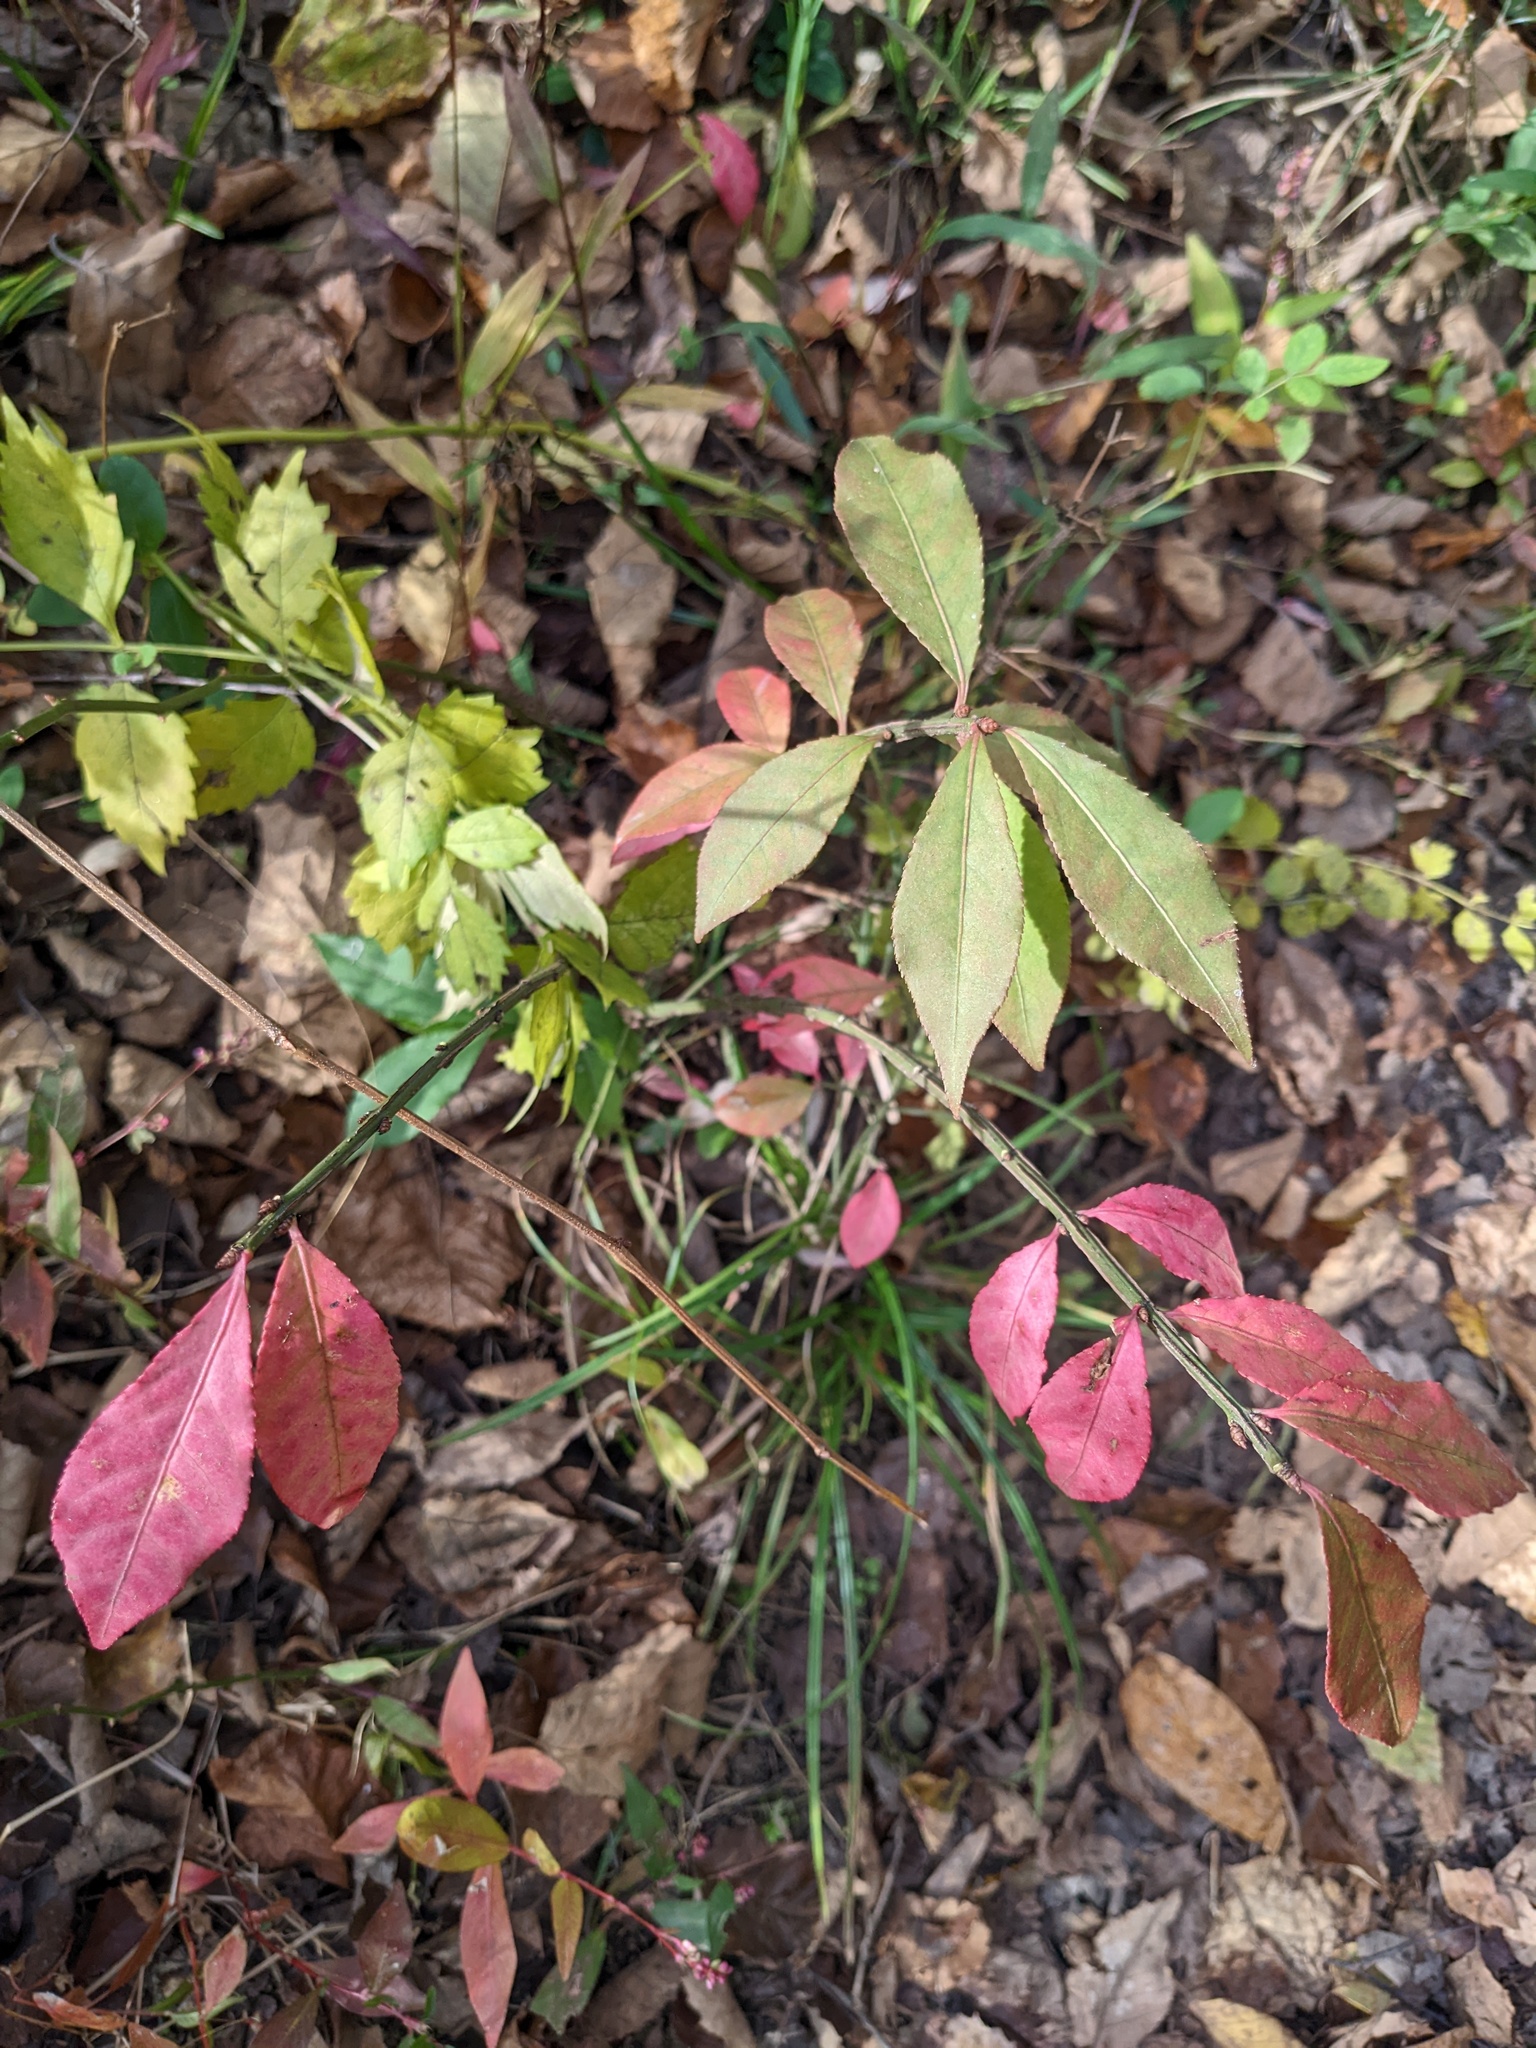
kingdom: Plantae
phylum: Tracheophyta
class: Magnoliopsida
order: Celastrales
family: Celastraceae
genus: Euonymus
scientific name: Euonymus alatus
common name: Winged euonymus
